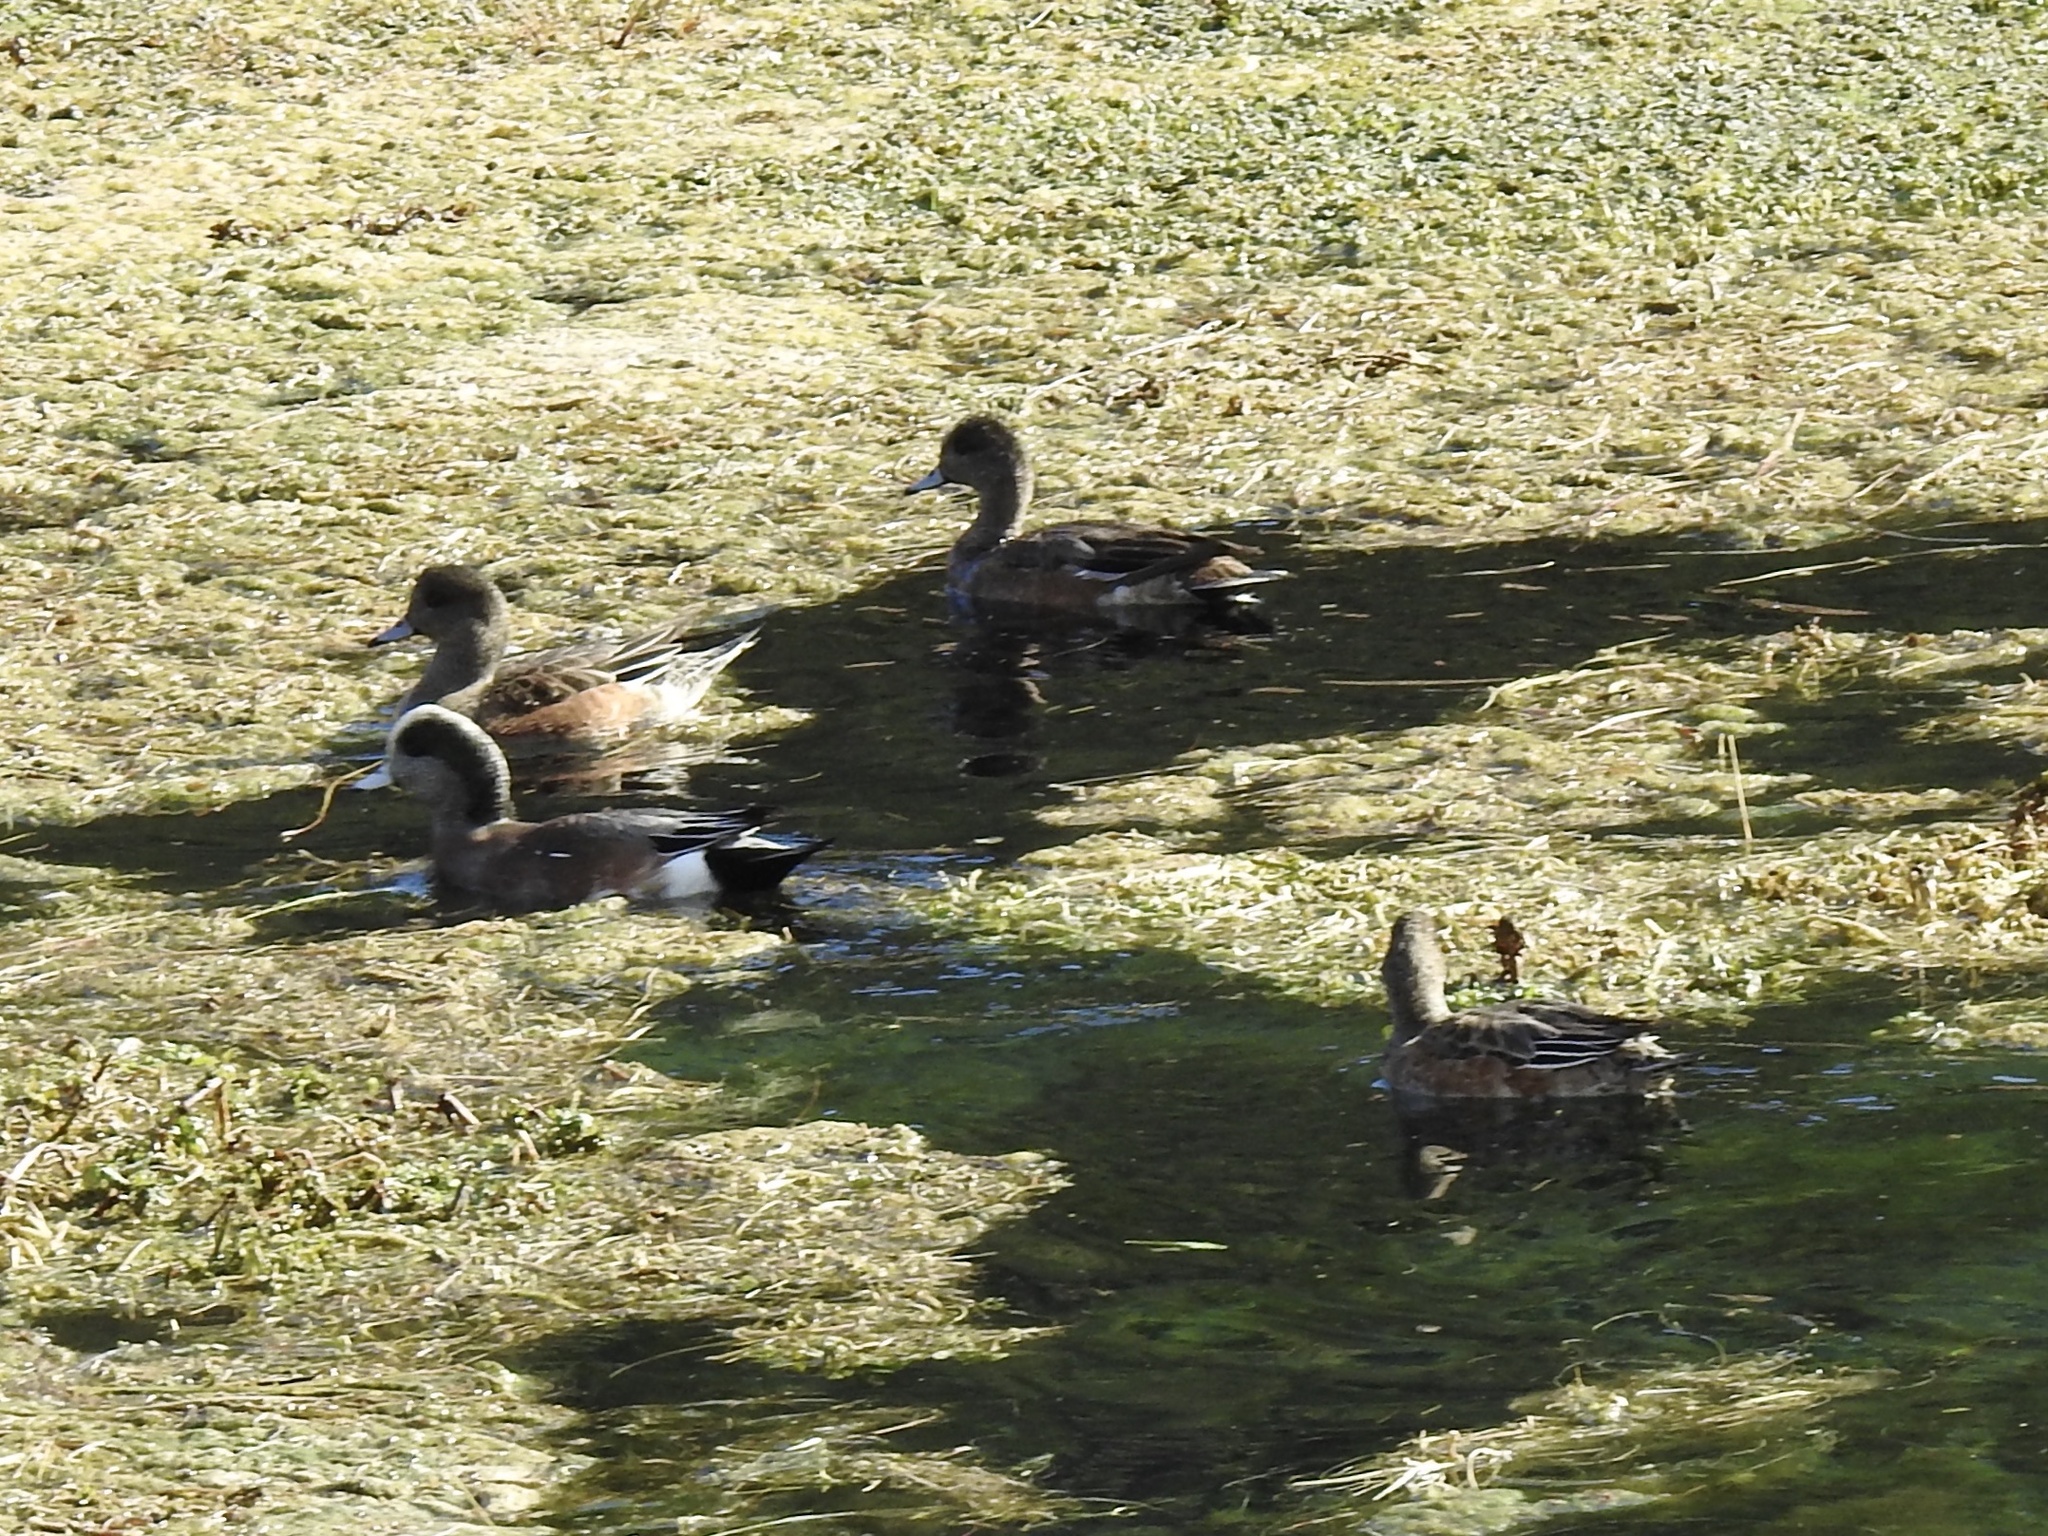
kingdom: Animalia
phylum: Chordata
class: Aves
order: Anseriformes
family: Anatidae
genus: Mareca
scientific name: Mareca americana
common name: American wigeon
